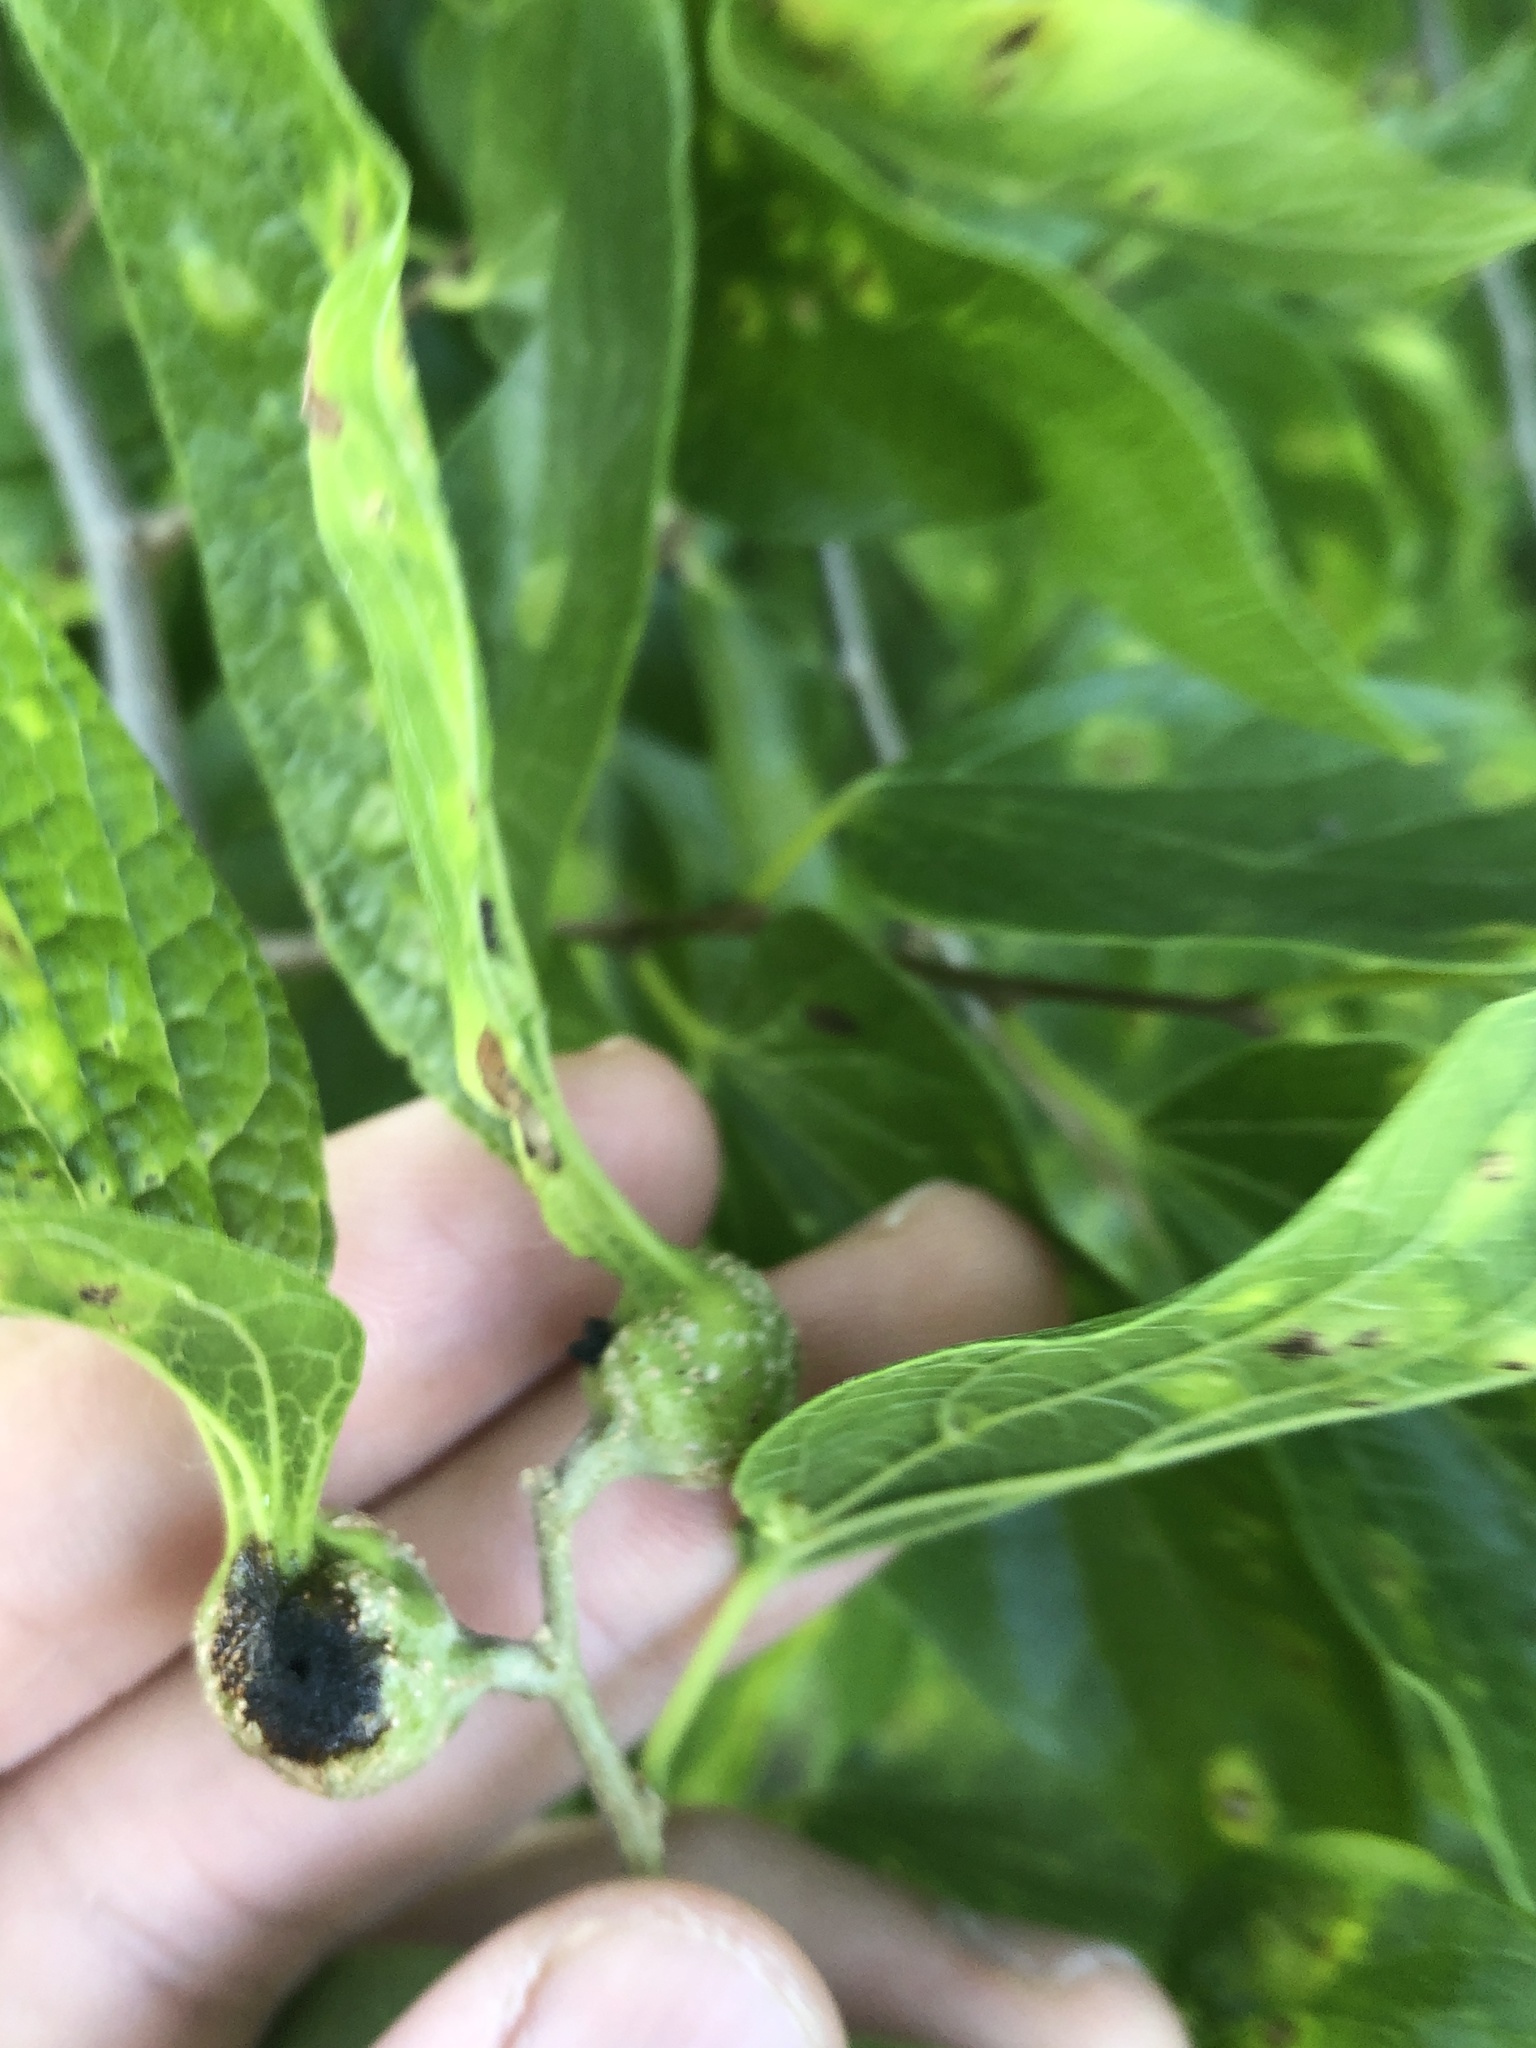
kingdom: Animalia
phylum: Arthropoda
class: Insecta
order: Hemiptera
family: Aphalaridae
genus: Pachypsylla
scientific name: Pachypsylla venusta
